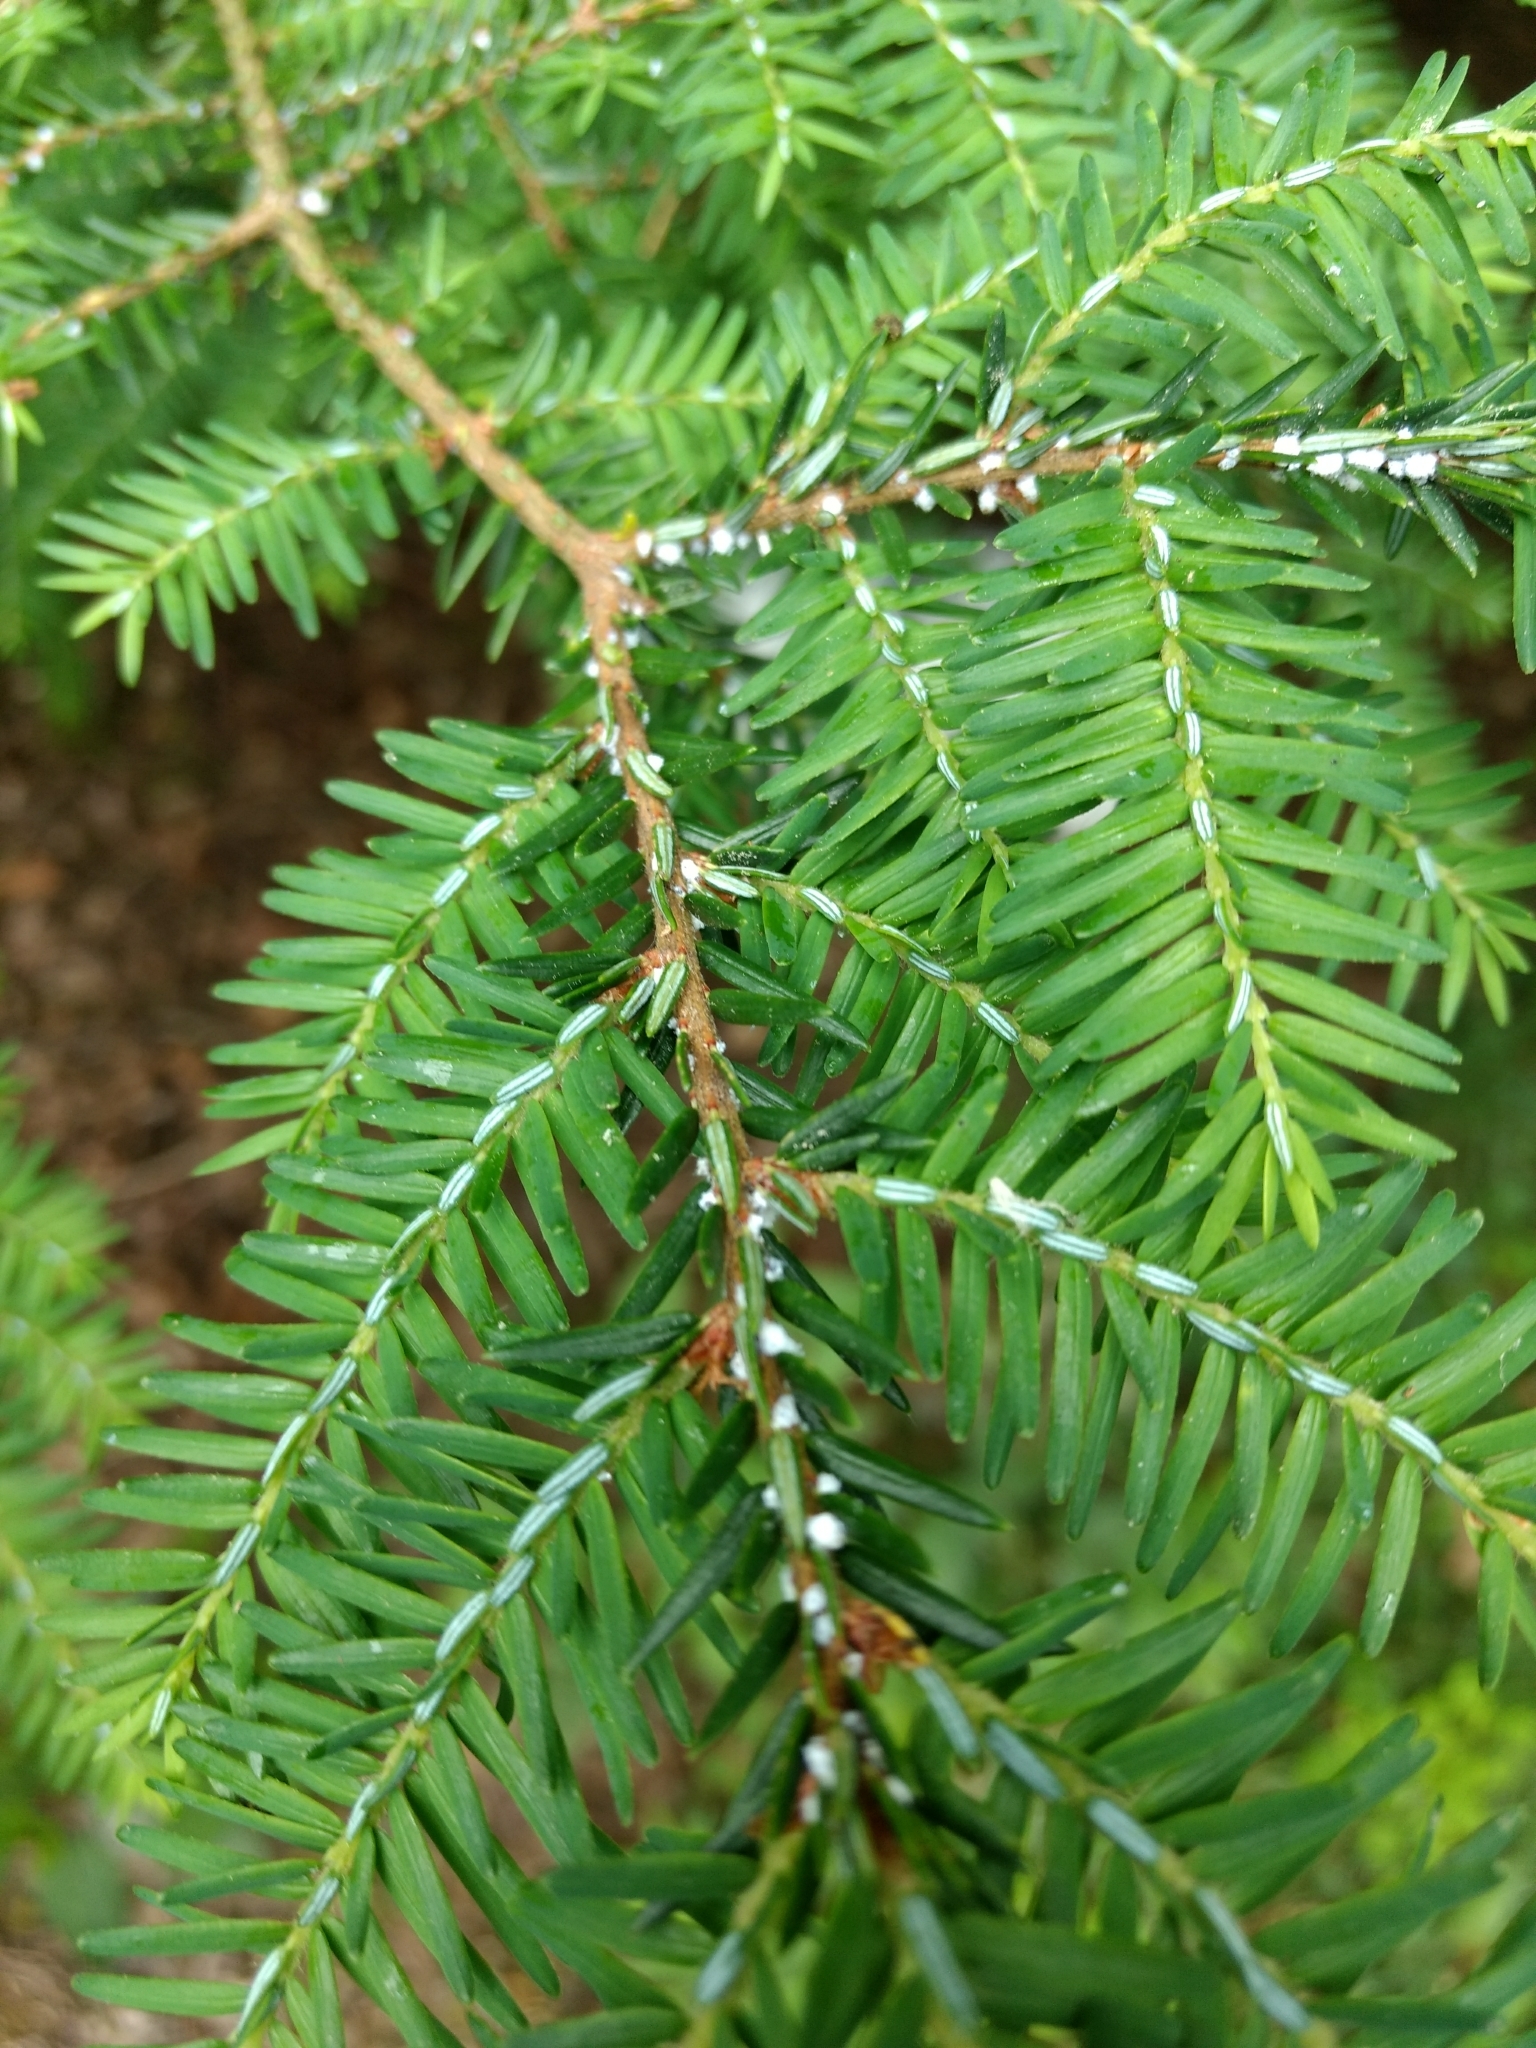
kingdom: Animalia
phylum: Arthropoda
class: Insecta
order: Hemiptera
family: Adelgidae
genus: Adelges
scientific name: Adelges tsugae
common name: Hemlock woolly adelgid
